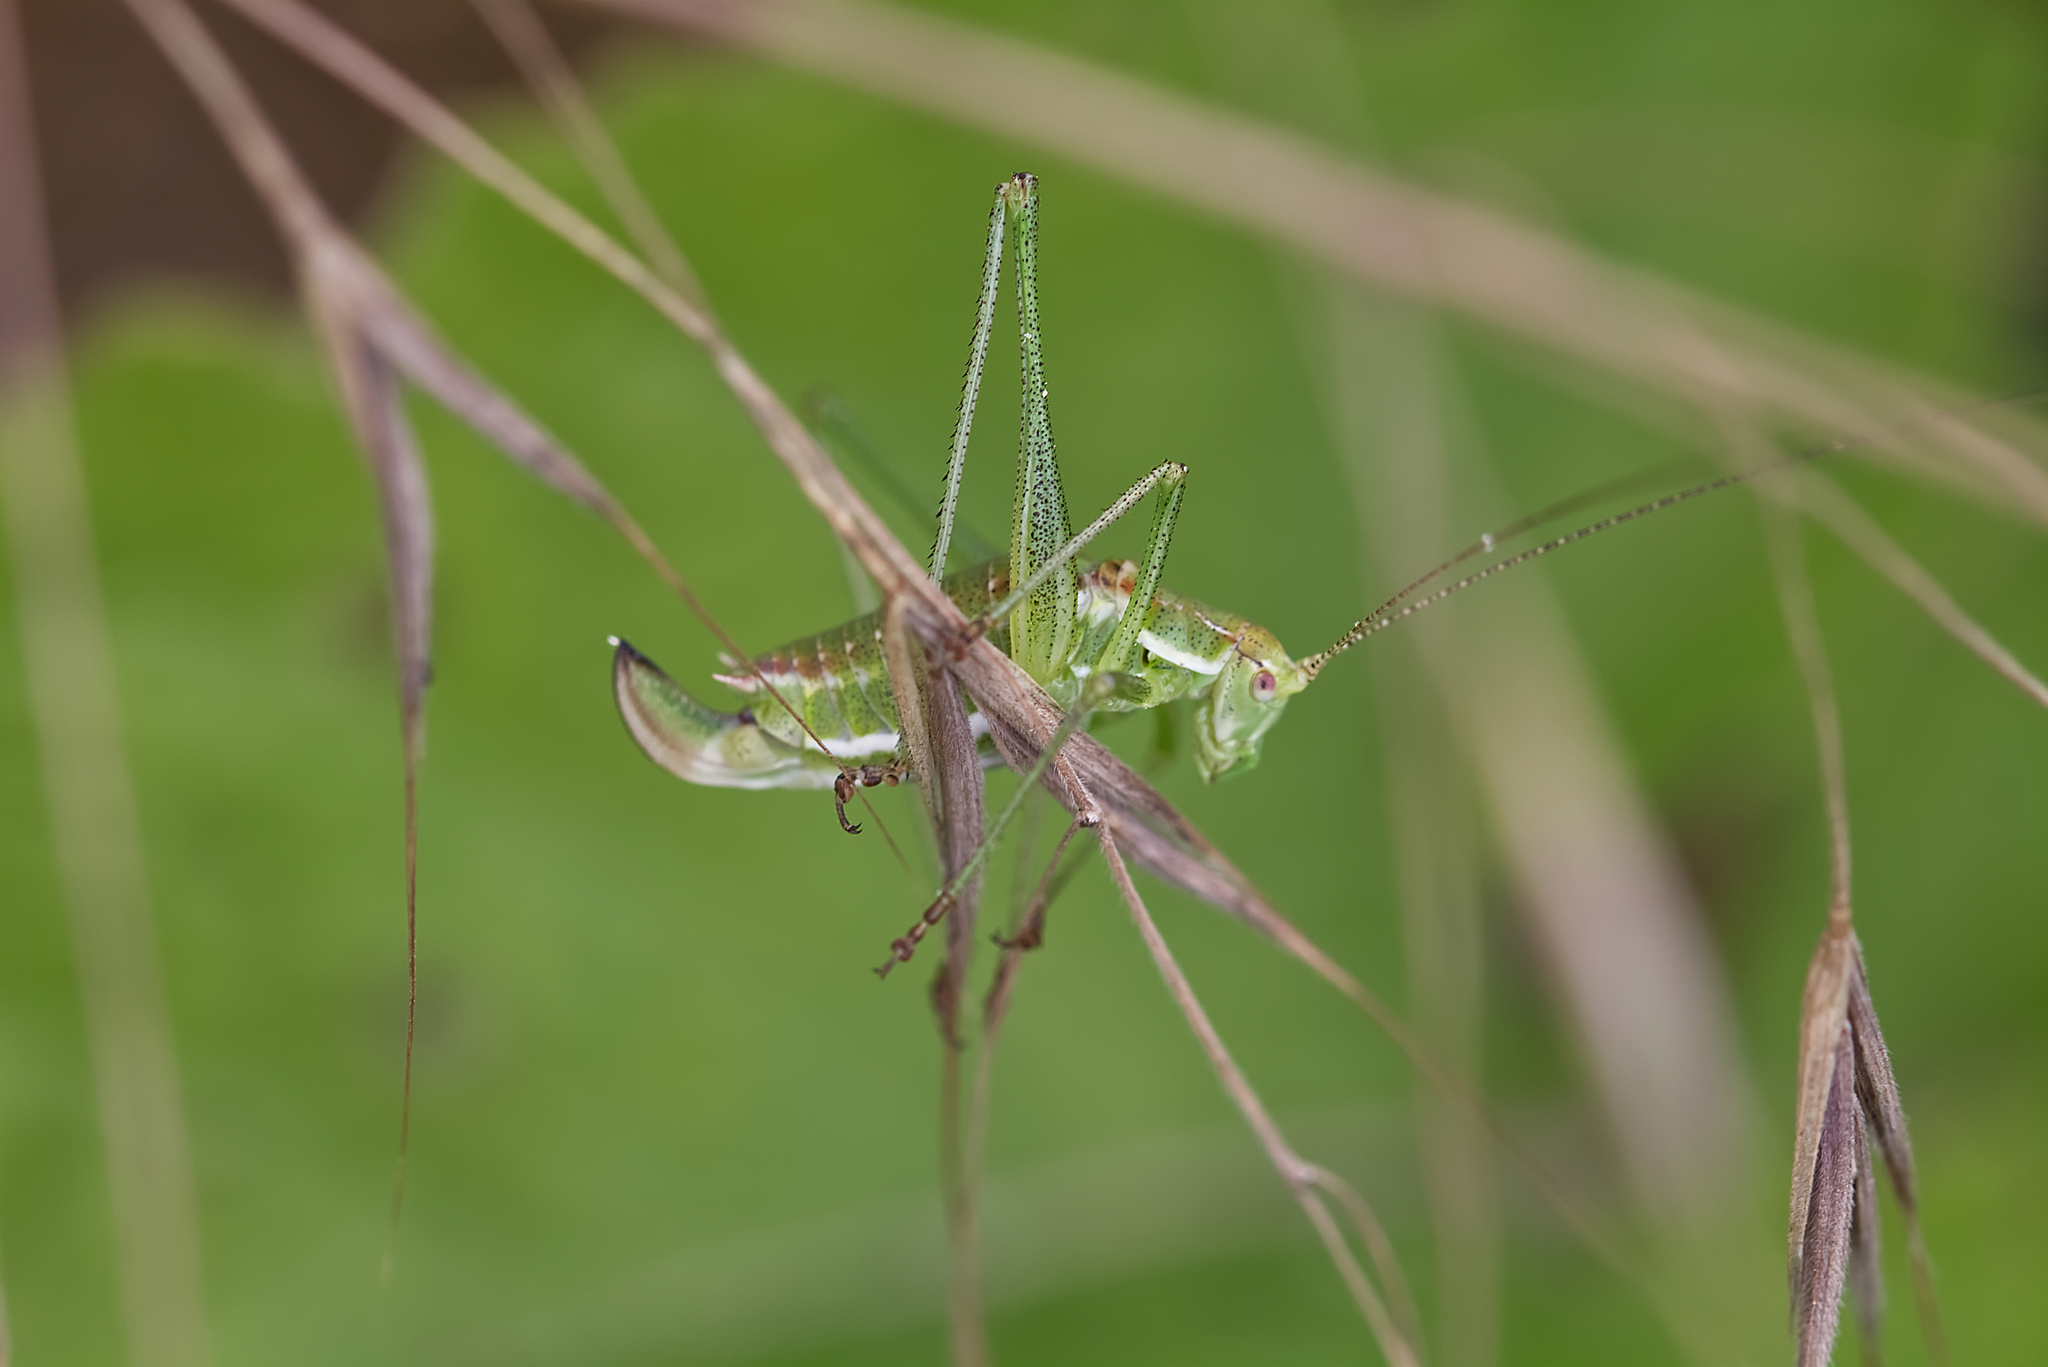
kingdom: Animalia
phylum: Arthropoda
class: Insecta
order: Orthoptera
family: Tettigoniidae
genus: Leptophyes
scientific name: Leptophyes albovittata
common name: Striped bush-cricket
